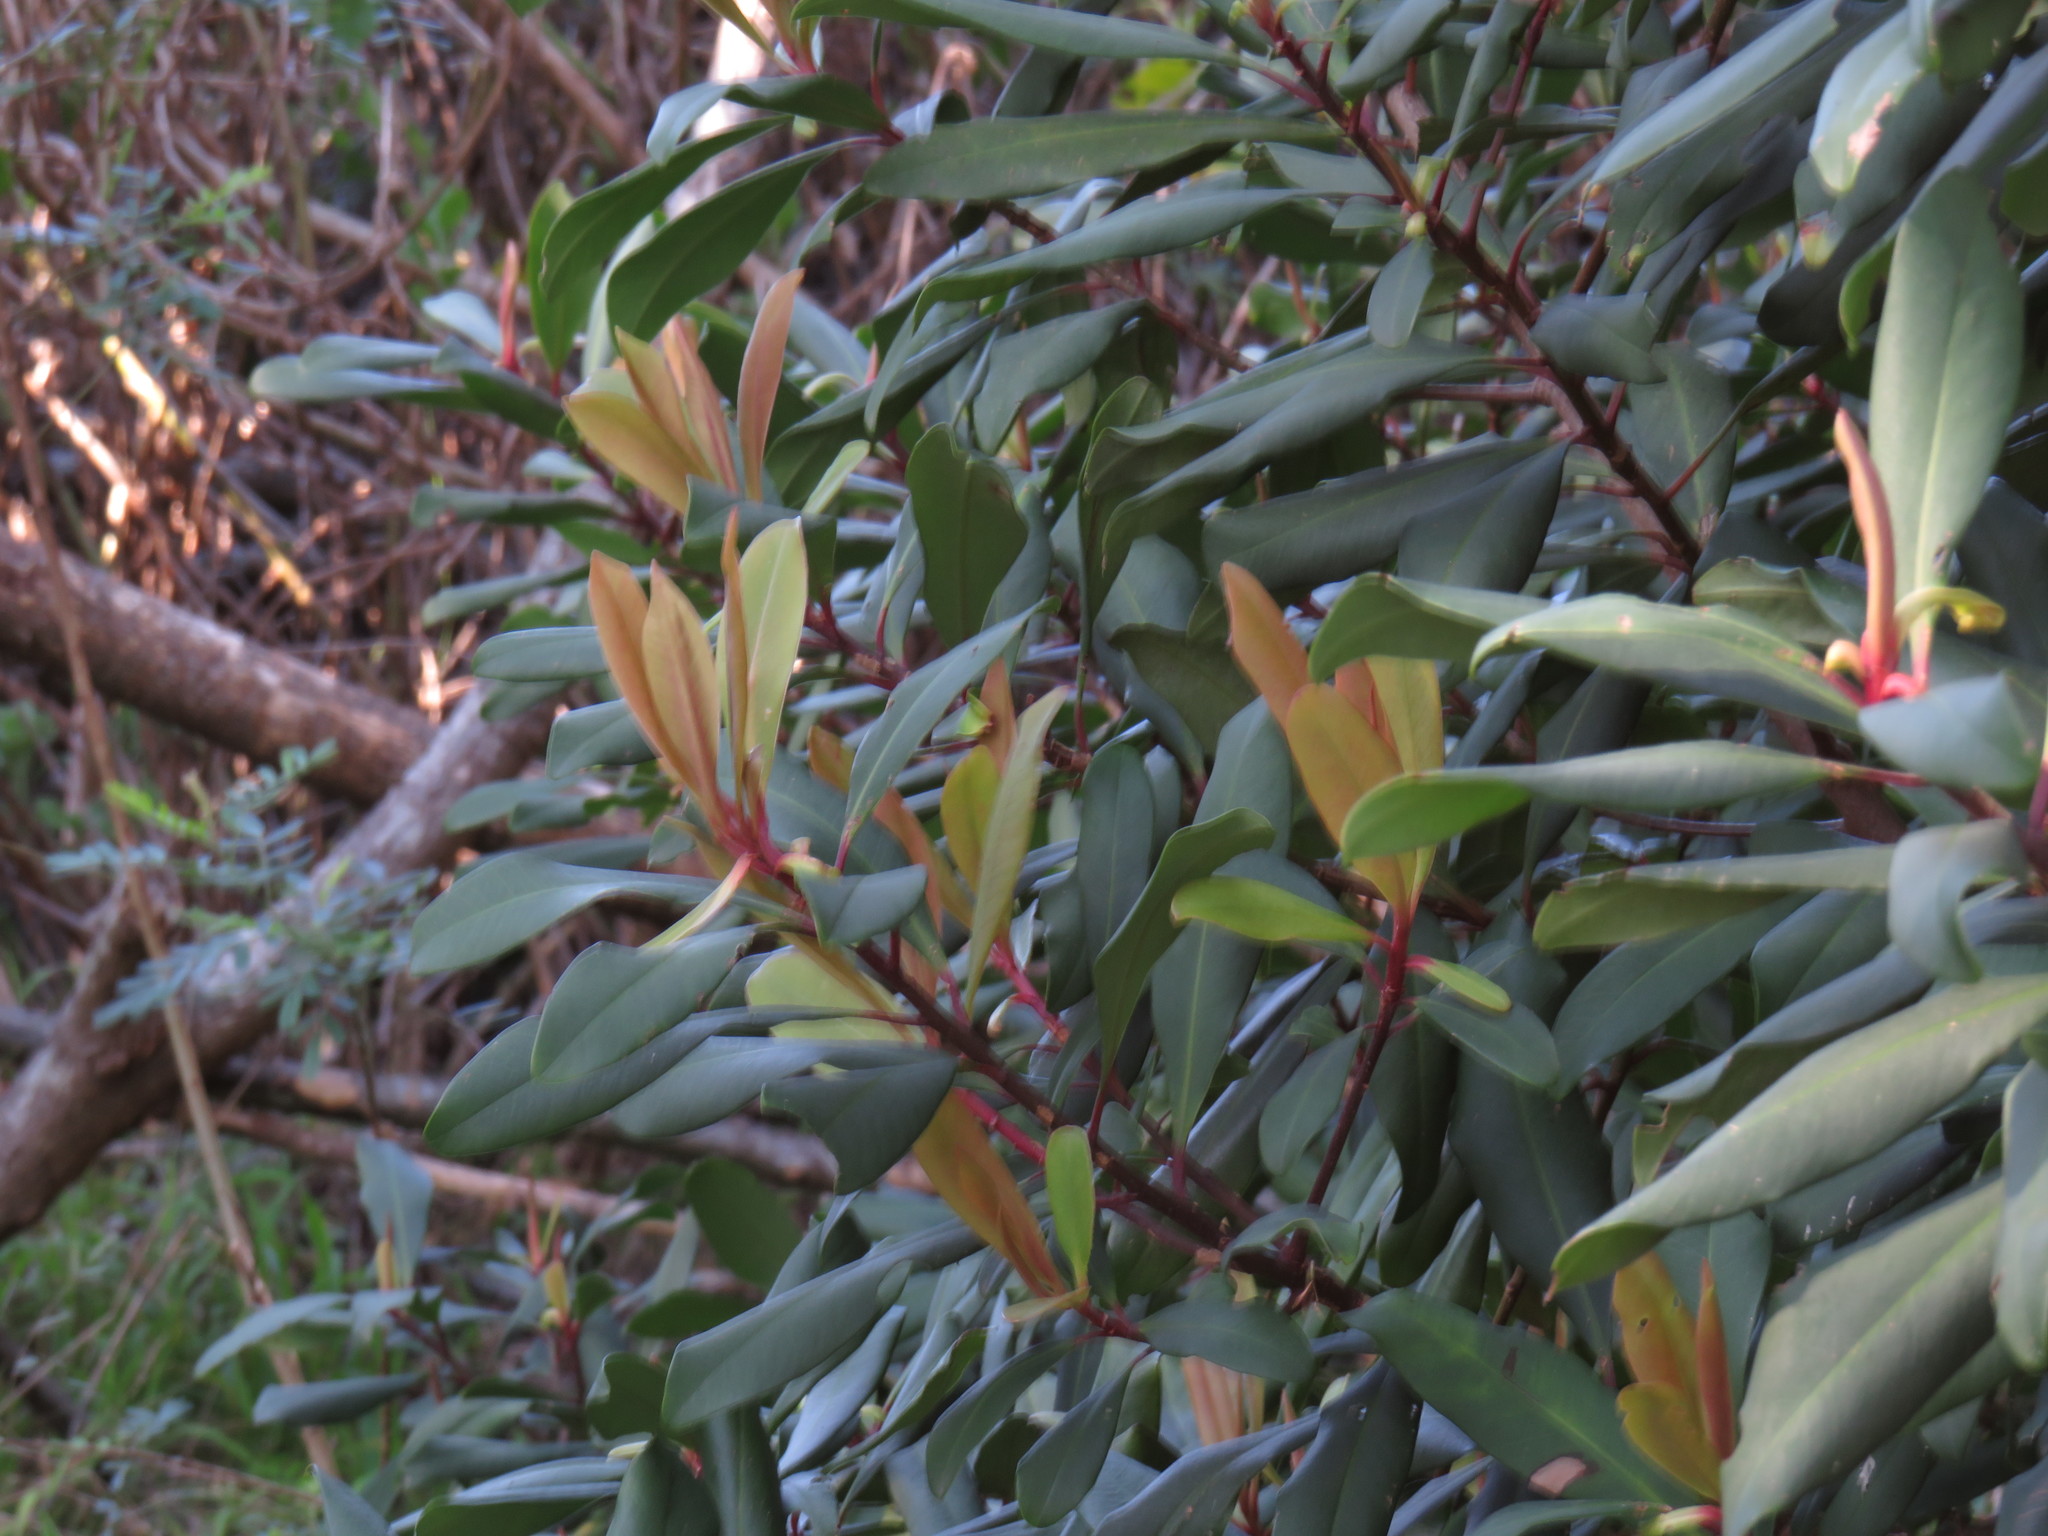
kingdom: Plantae
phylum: Tracheophyta
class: Magnoliopsida
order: Ericales
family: Primulaceae
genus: Myrsine
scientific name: Myrsine melanophloeos
